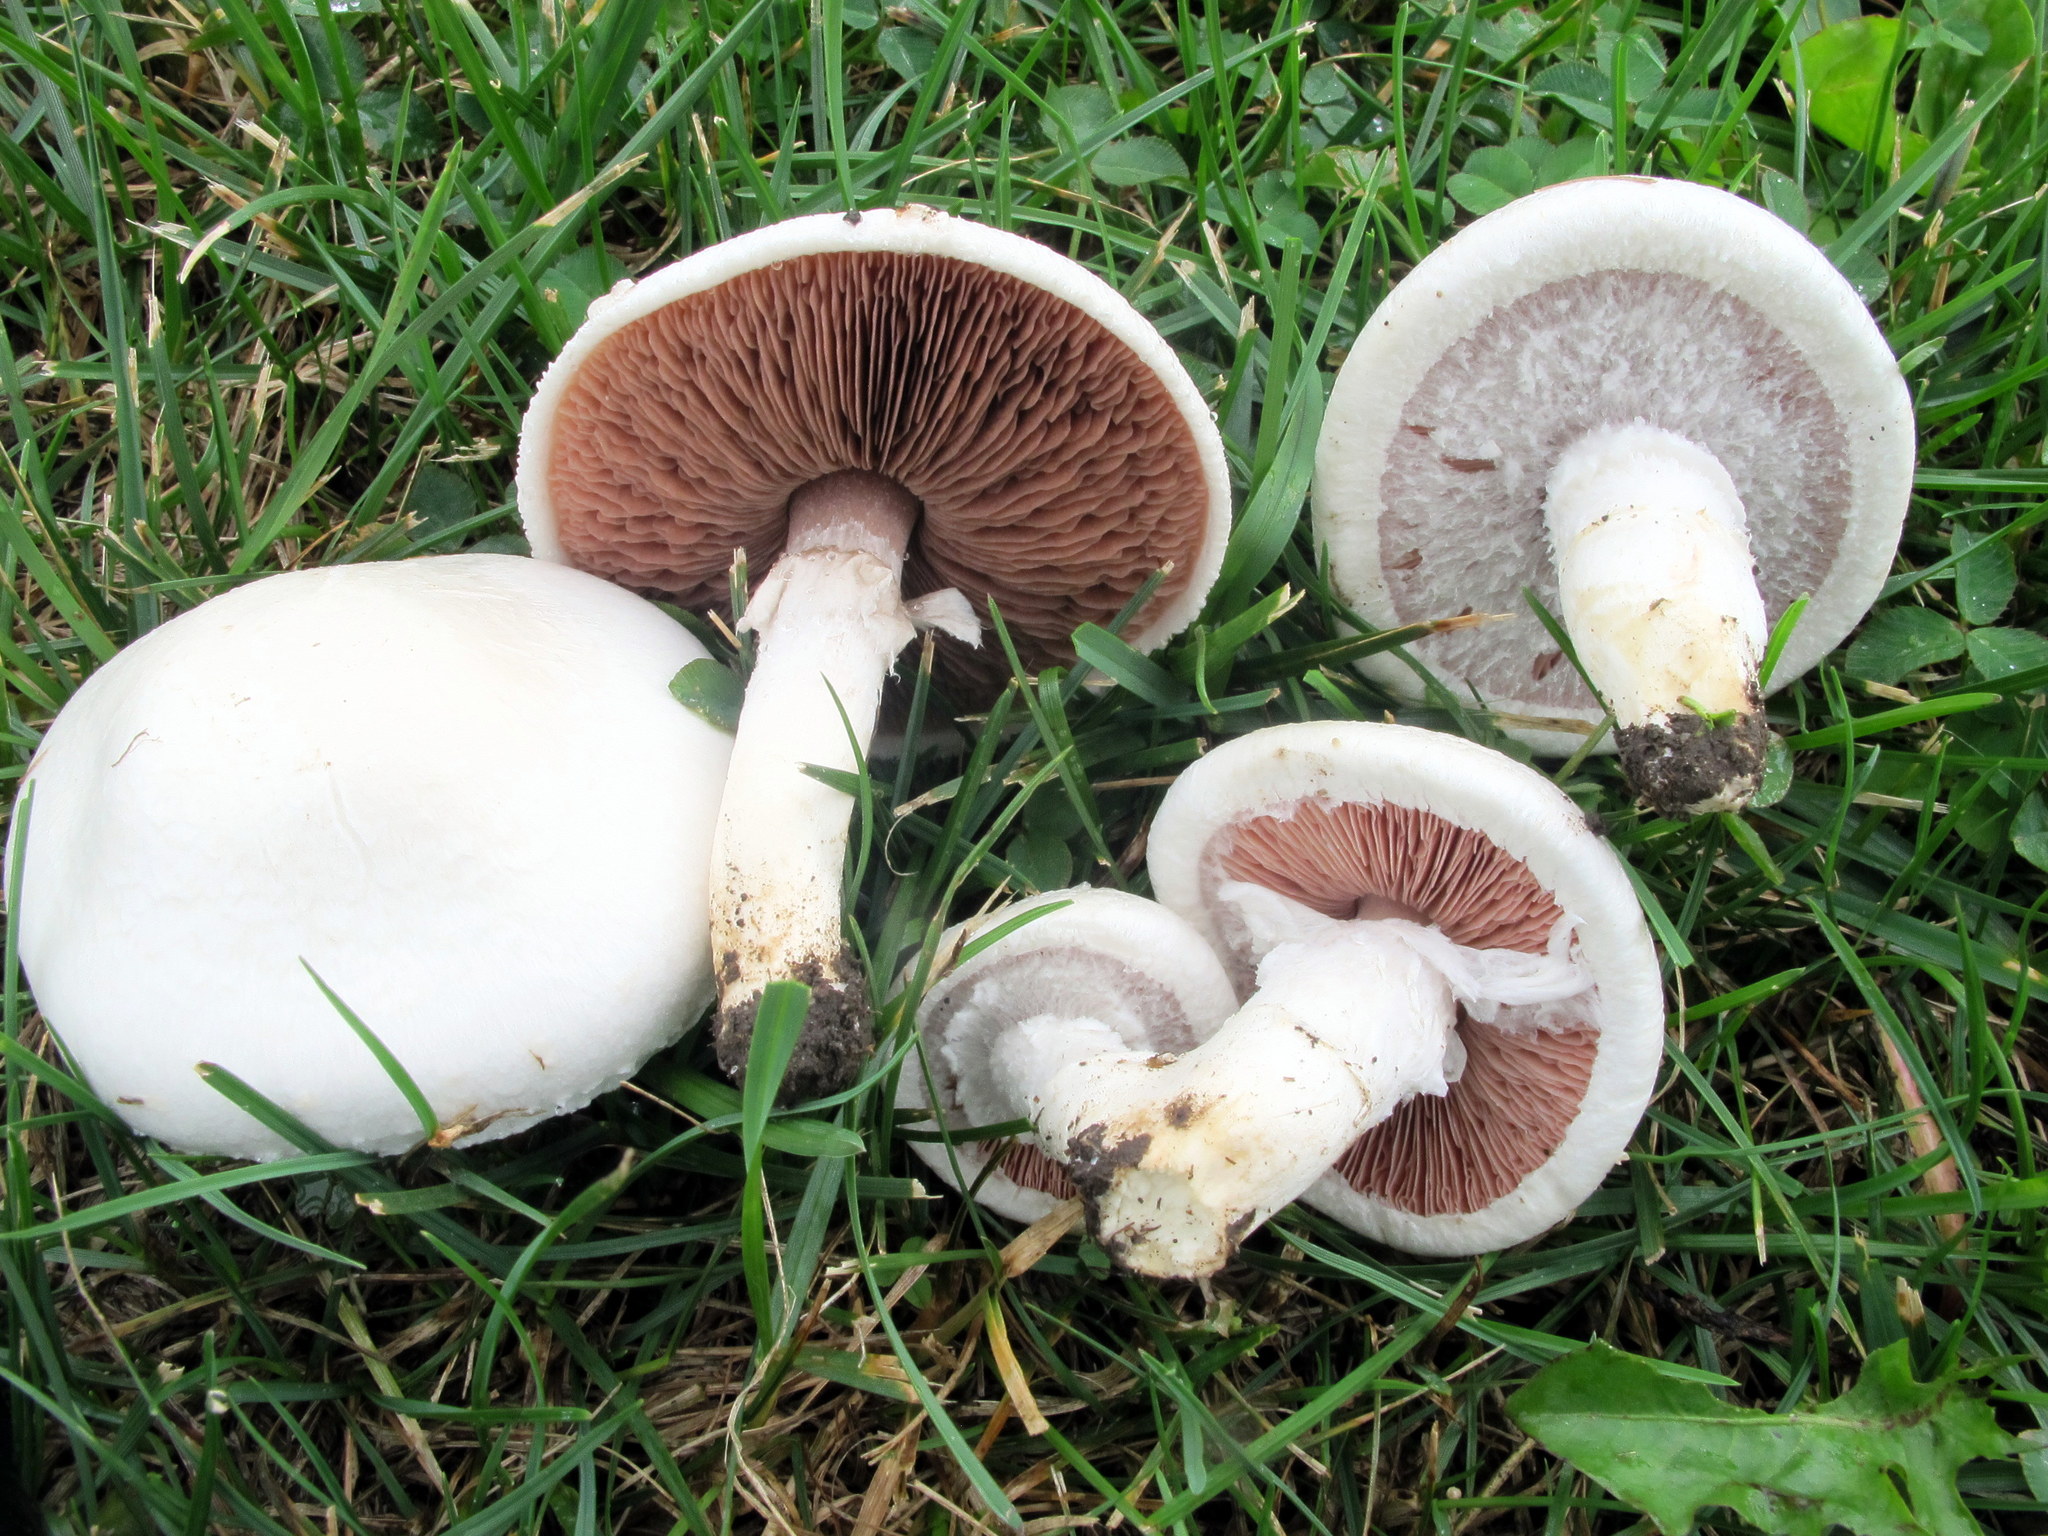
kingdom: Fungi
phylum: Basidiomycota
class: Agaricomycetes
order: Agaricales
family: Agaricaceae
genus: Agaricus
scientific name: Agaricus campestris
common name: Field mushroom
